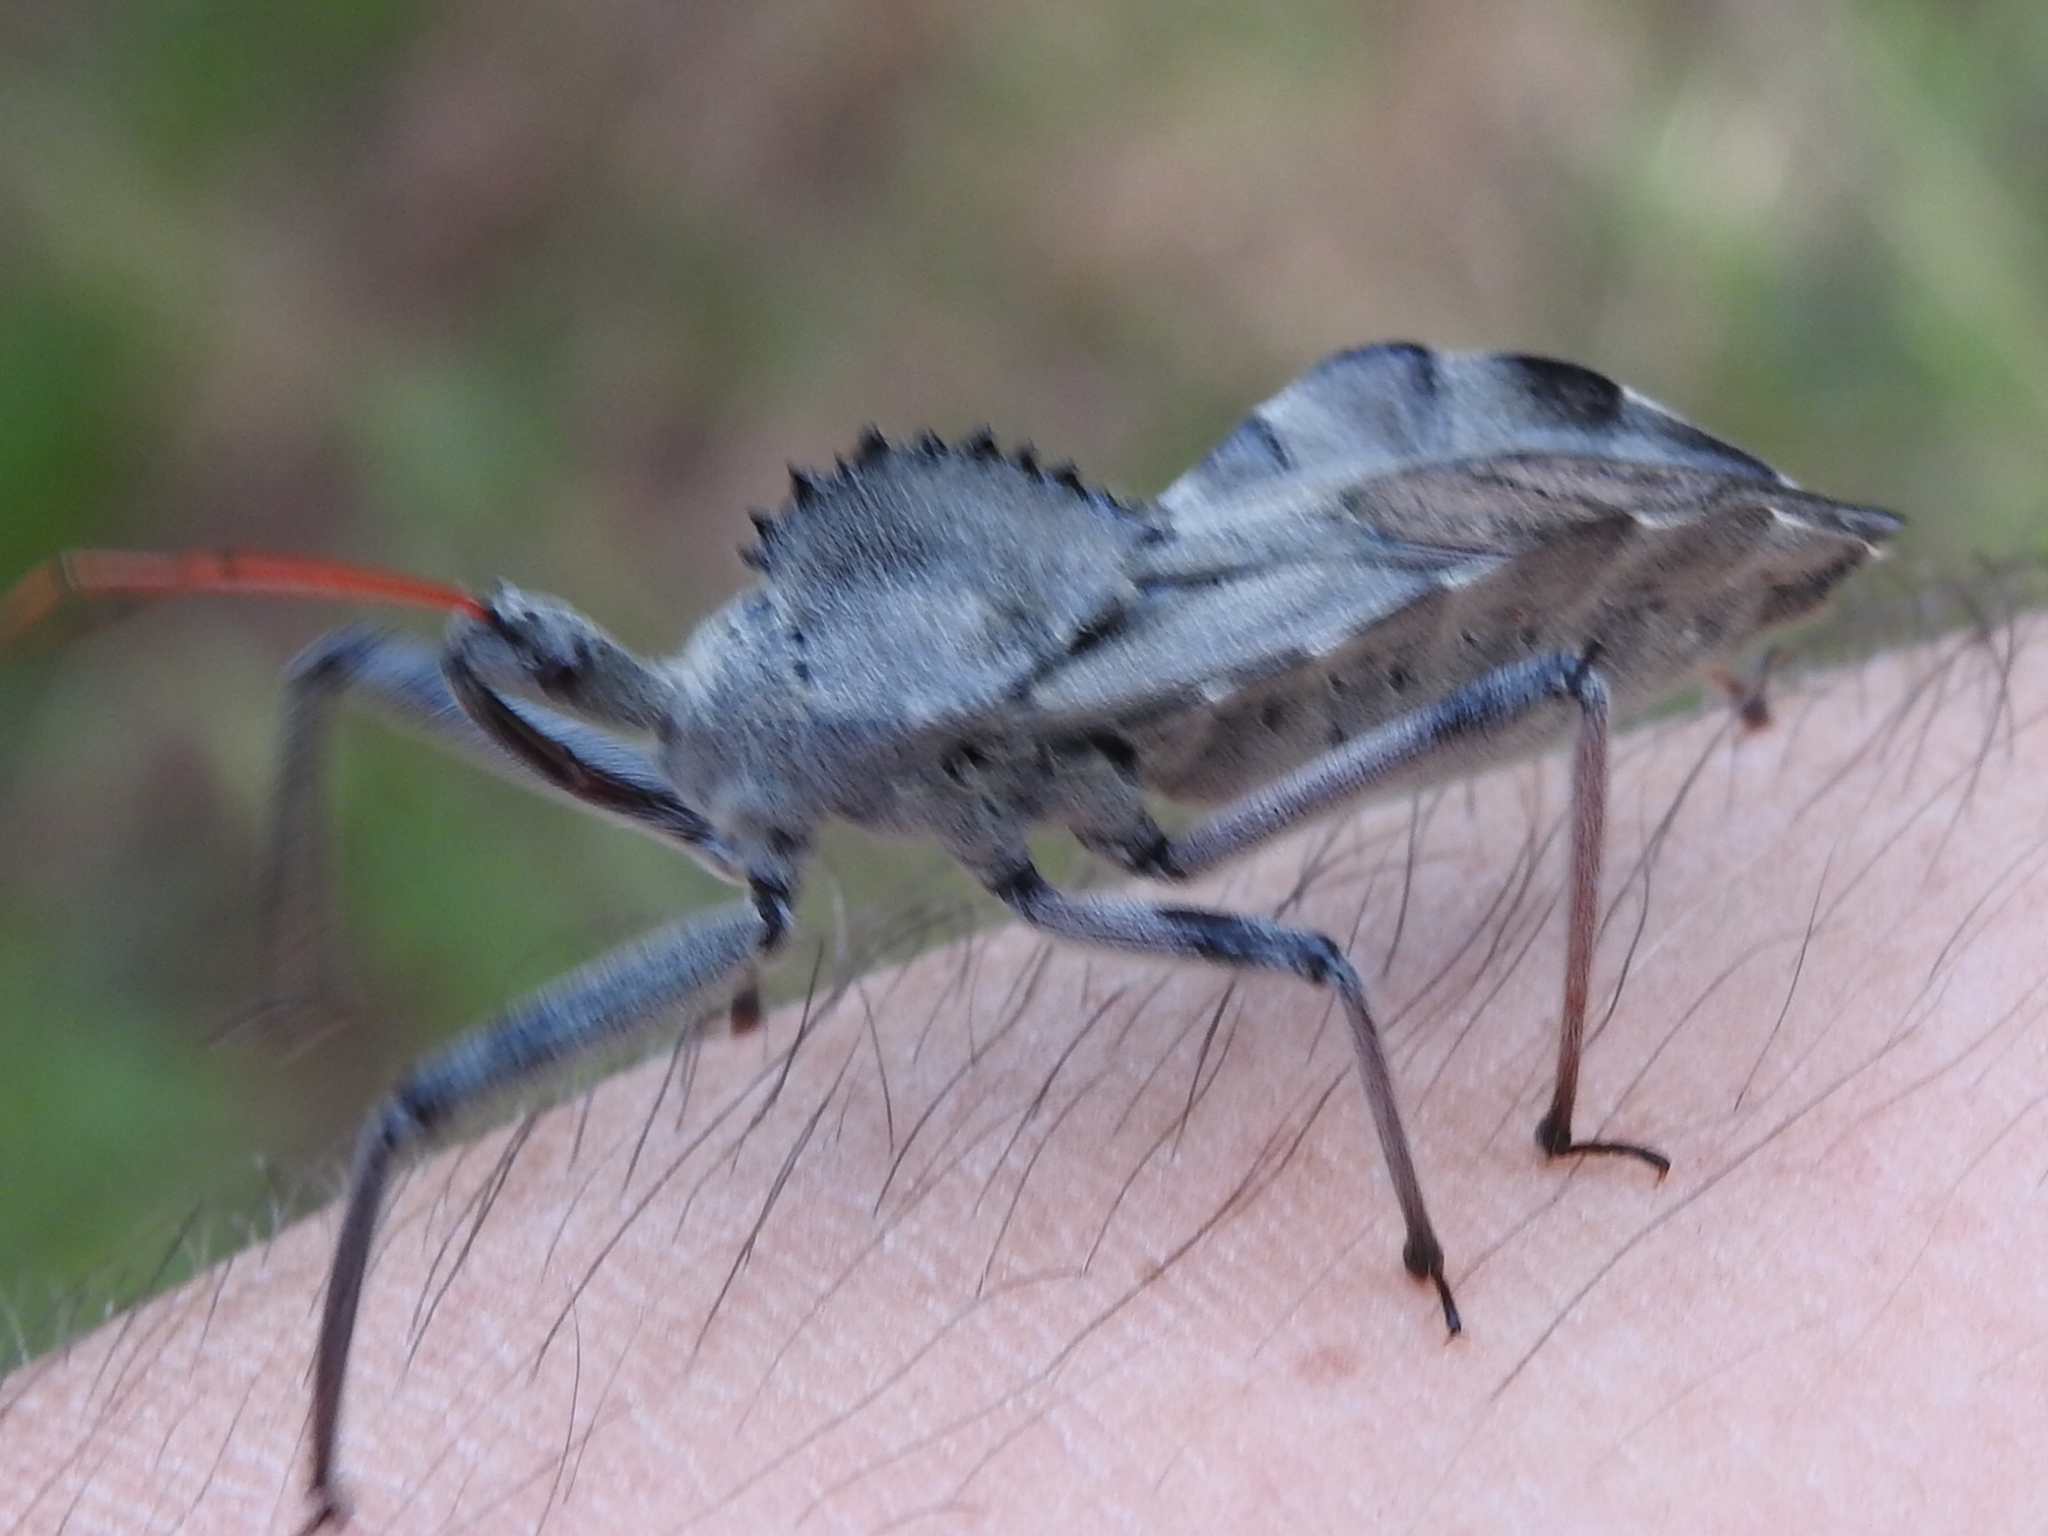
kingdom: Animalia
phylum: Arthropoda
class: Insecta
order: Hemiptera
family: Reduviidae
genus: Arilus
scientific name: Arilus cristatus
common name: North american wheel bug
